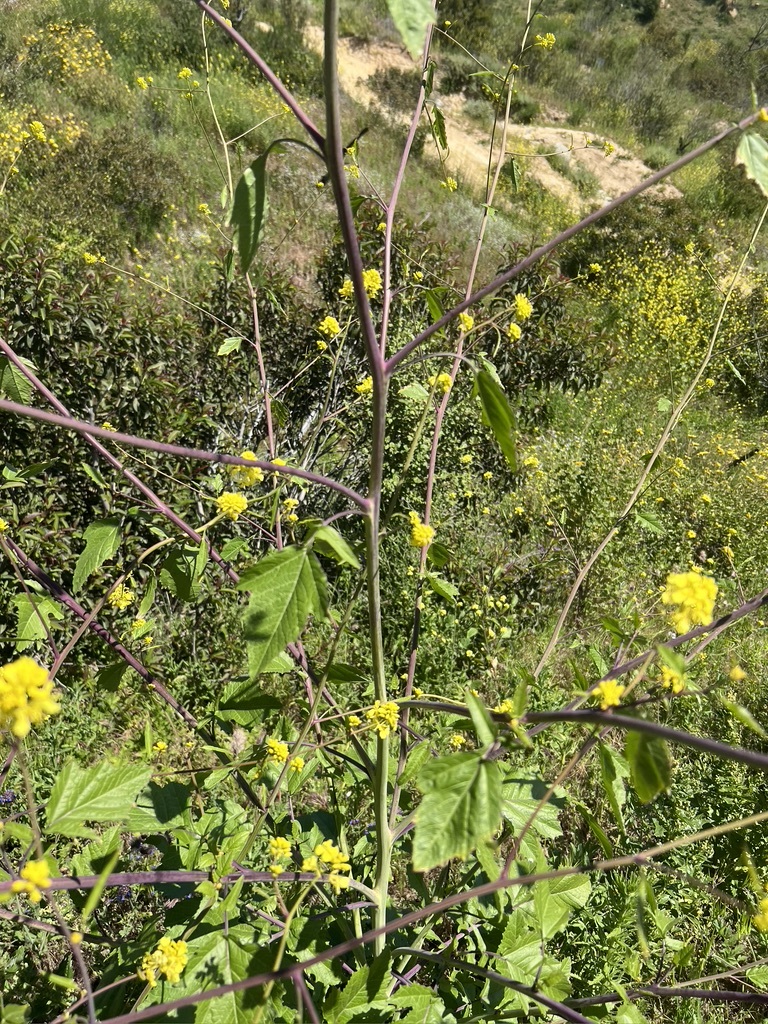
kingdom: Plantae
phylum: Tracheophyta
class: Magnoliopsida
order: Brassicales
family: Brassicaceae
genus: Brassica
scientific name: Brassica nigra
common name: Black mustard
